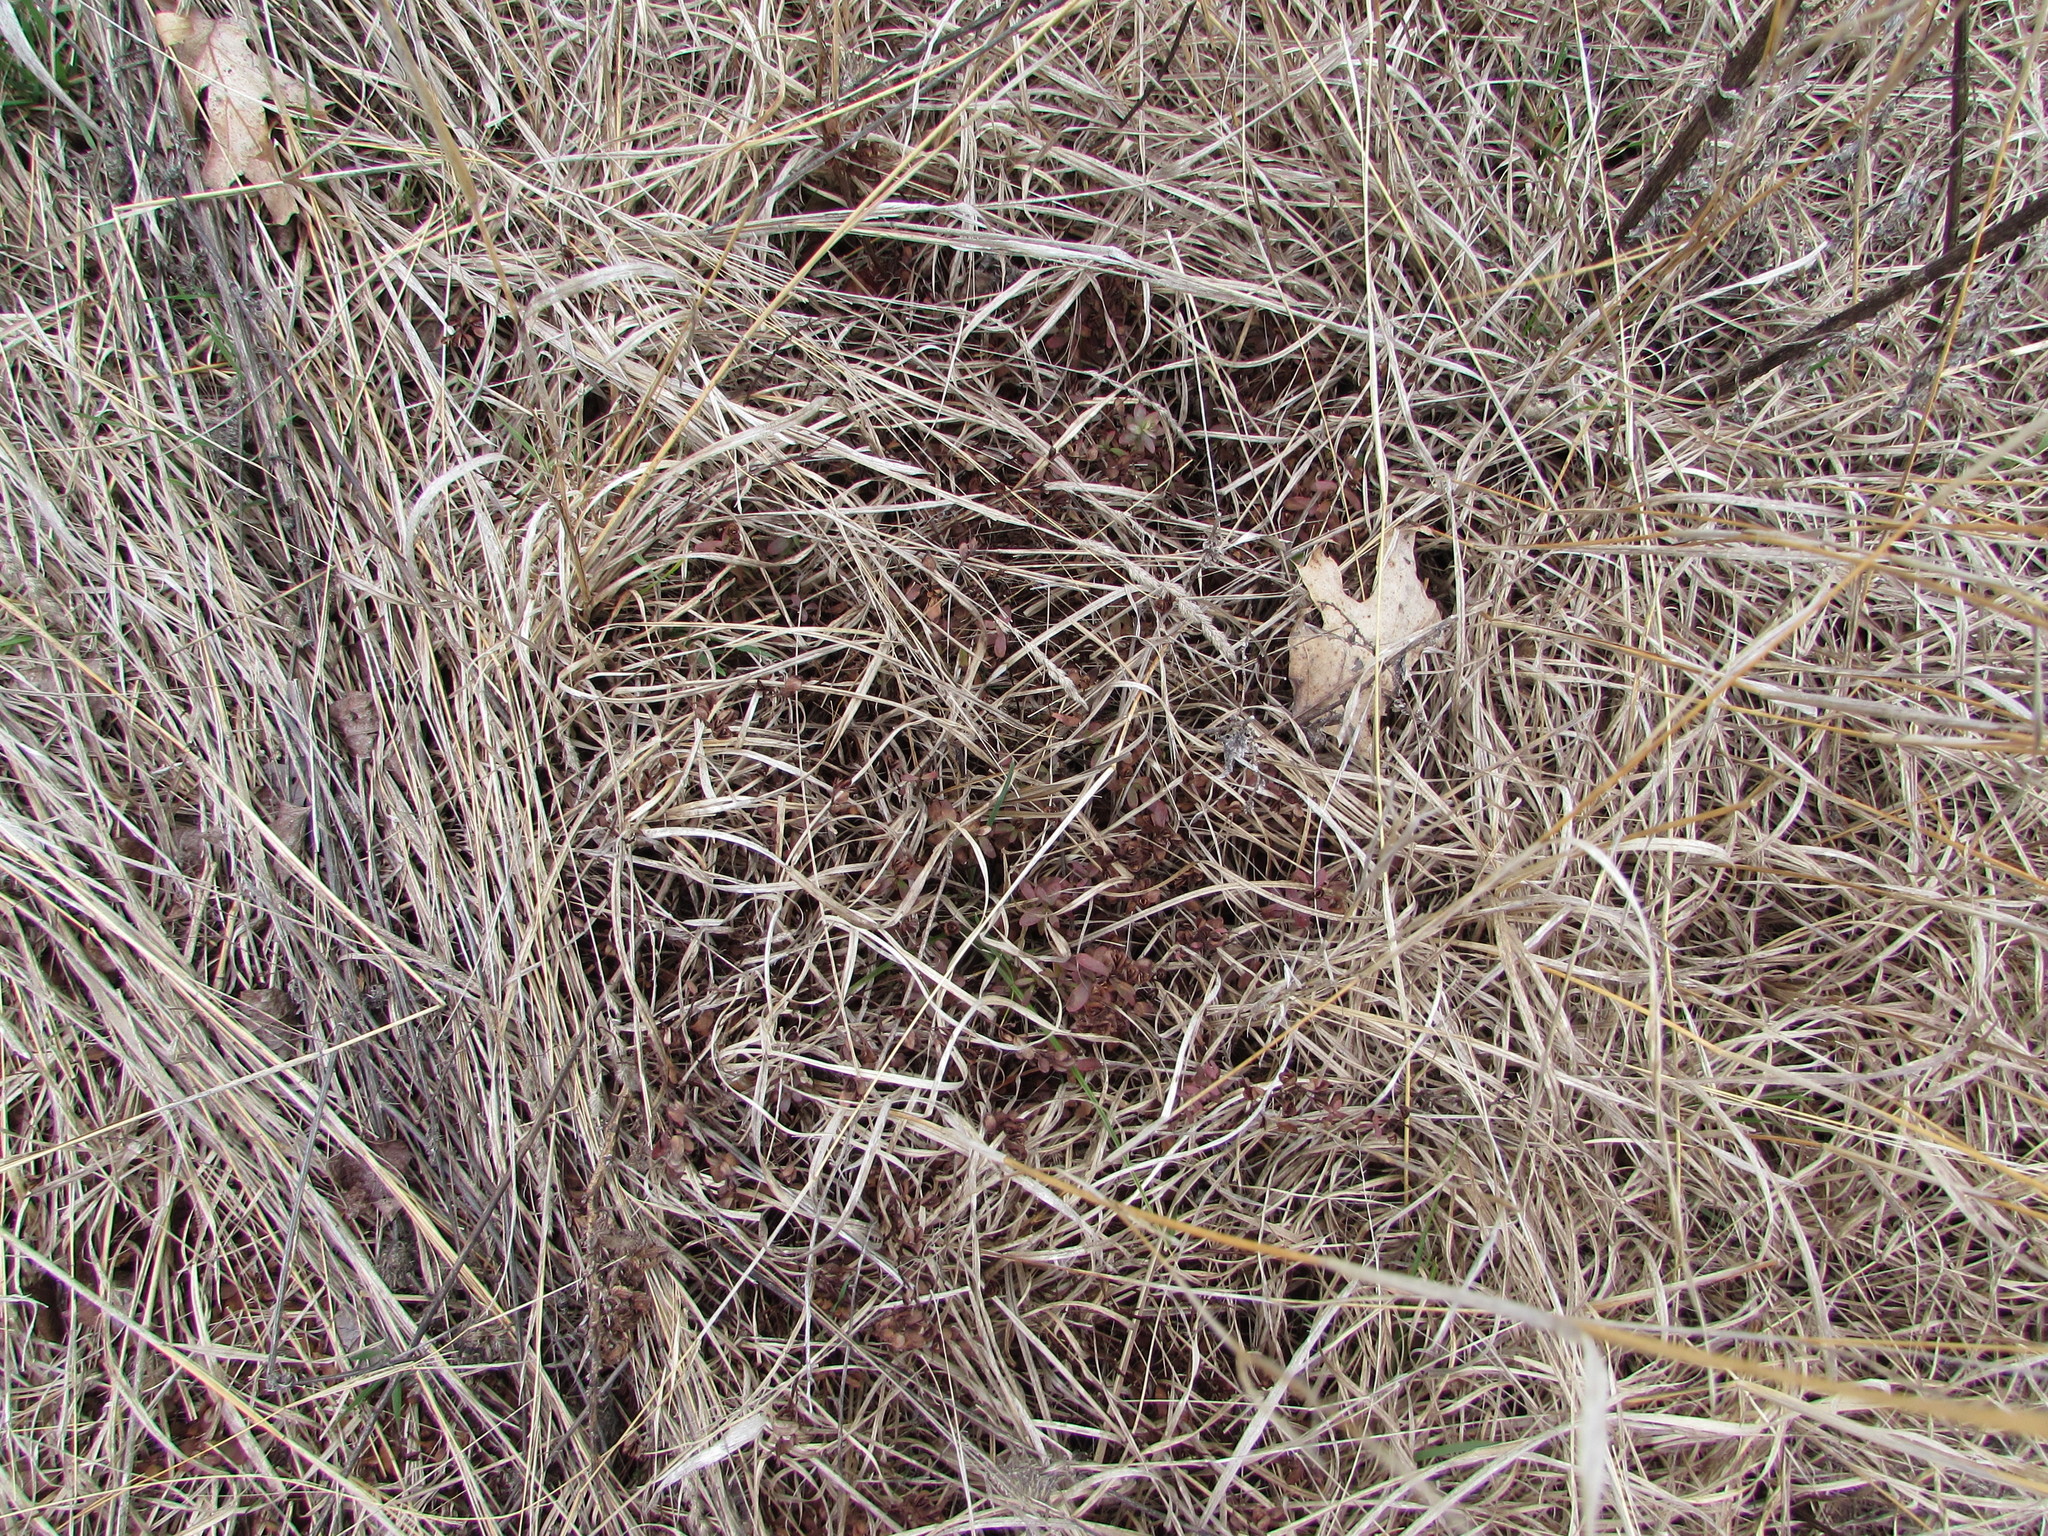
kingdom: Plantae
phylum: Tracheophyta
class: Magnoliopsida
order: Malpighiales
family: Hypericaceae
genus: Hypericum
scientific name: Hypericum hypericoides
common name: St. andrew's cross
